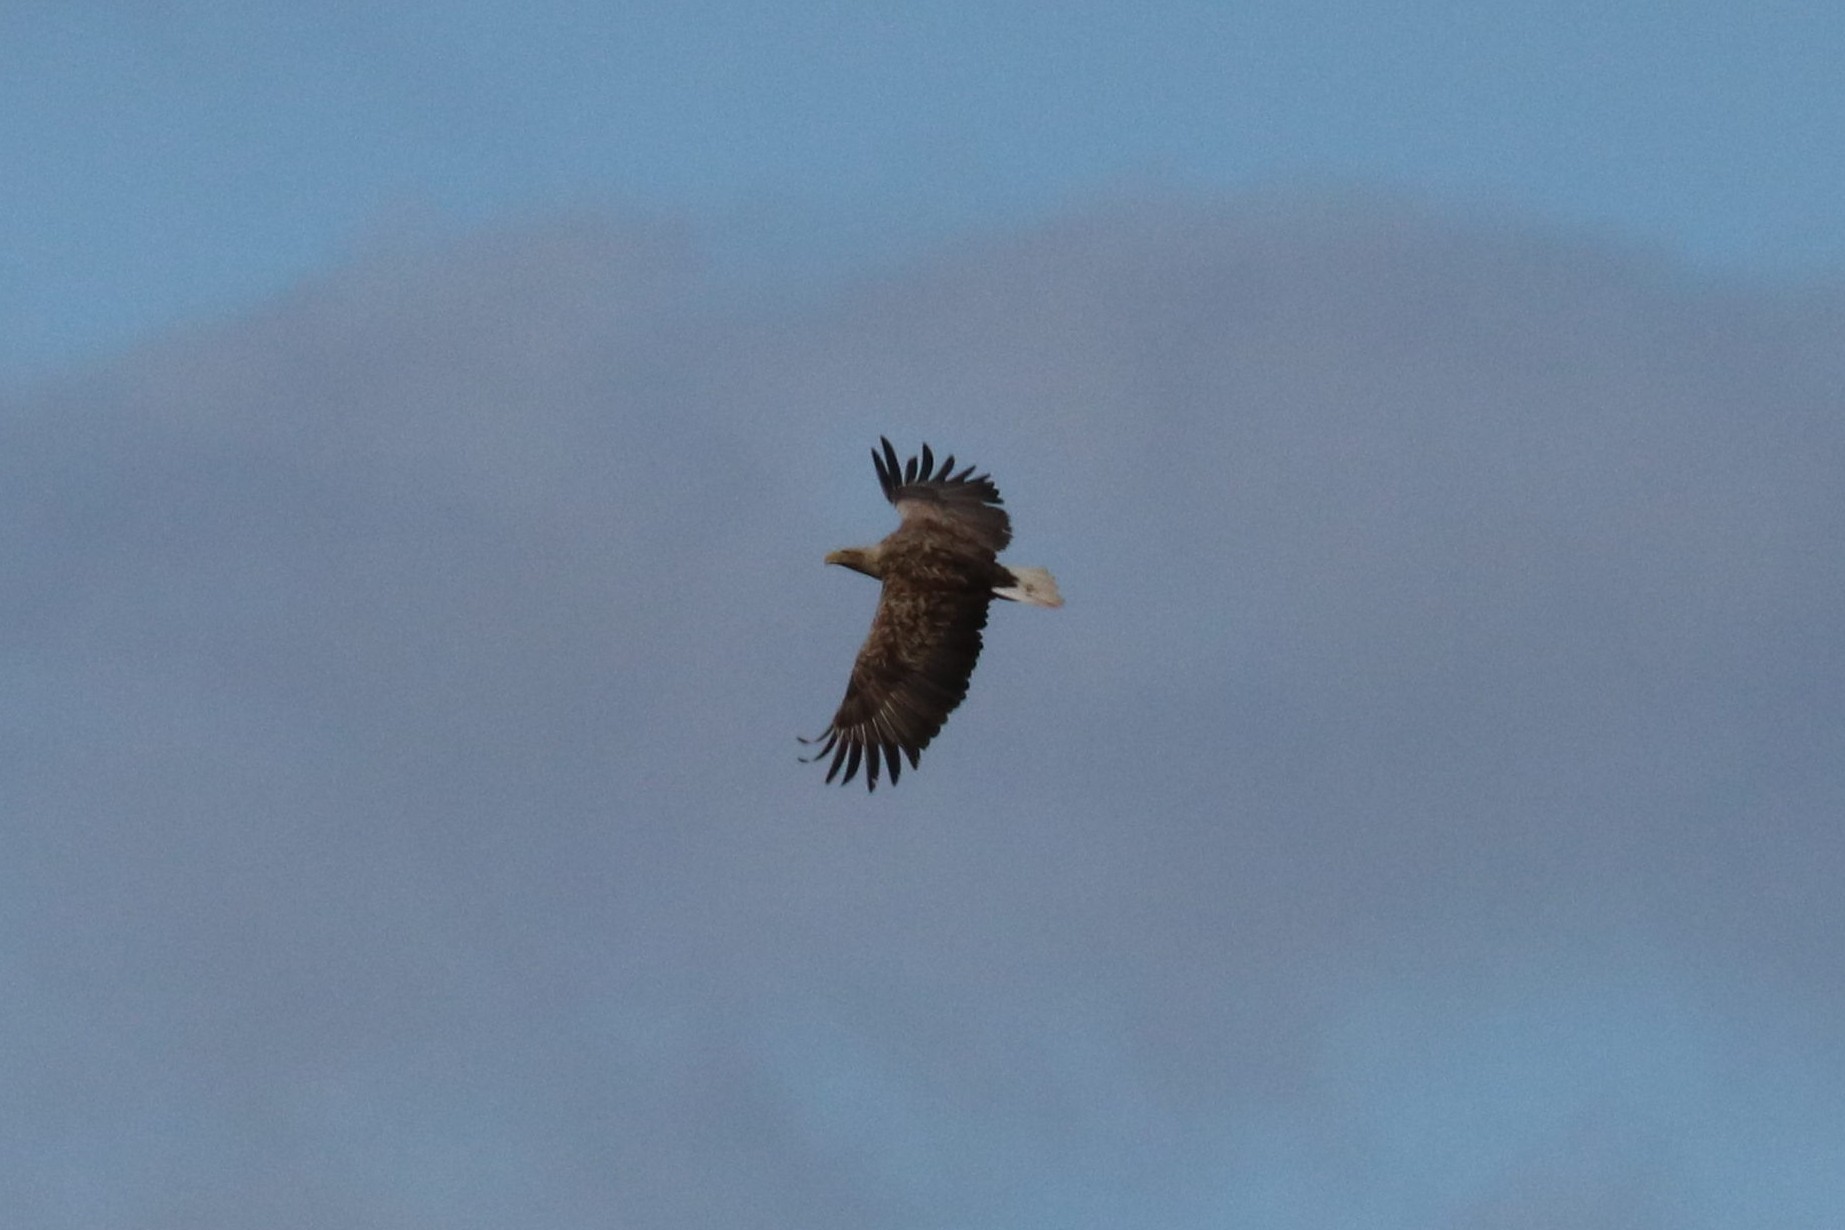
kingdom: Animalia
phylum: Chordata
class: Aves
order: Accipitriformes
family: Accipitridae
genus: Haliaeetus
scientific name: Haliaeetus albicilla
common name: White-tailed eagle
